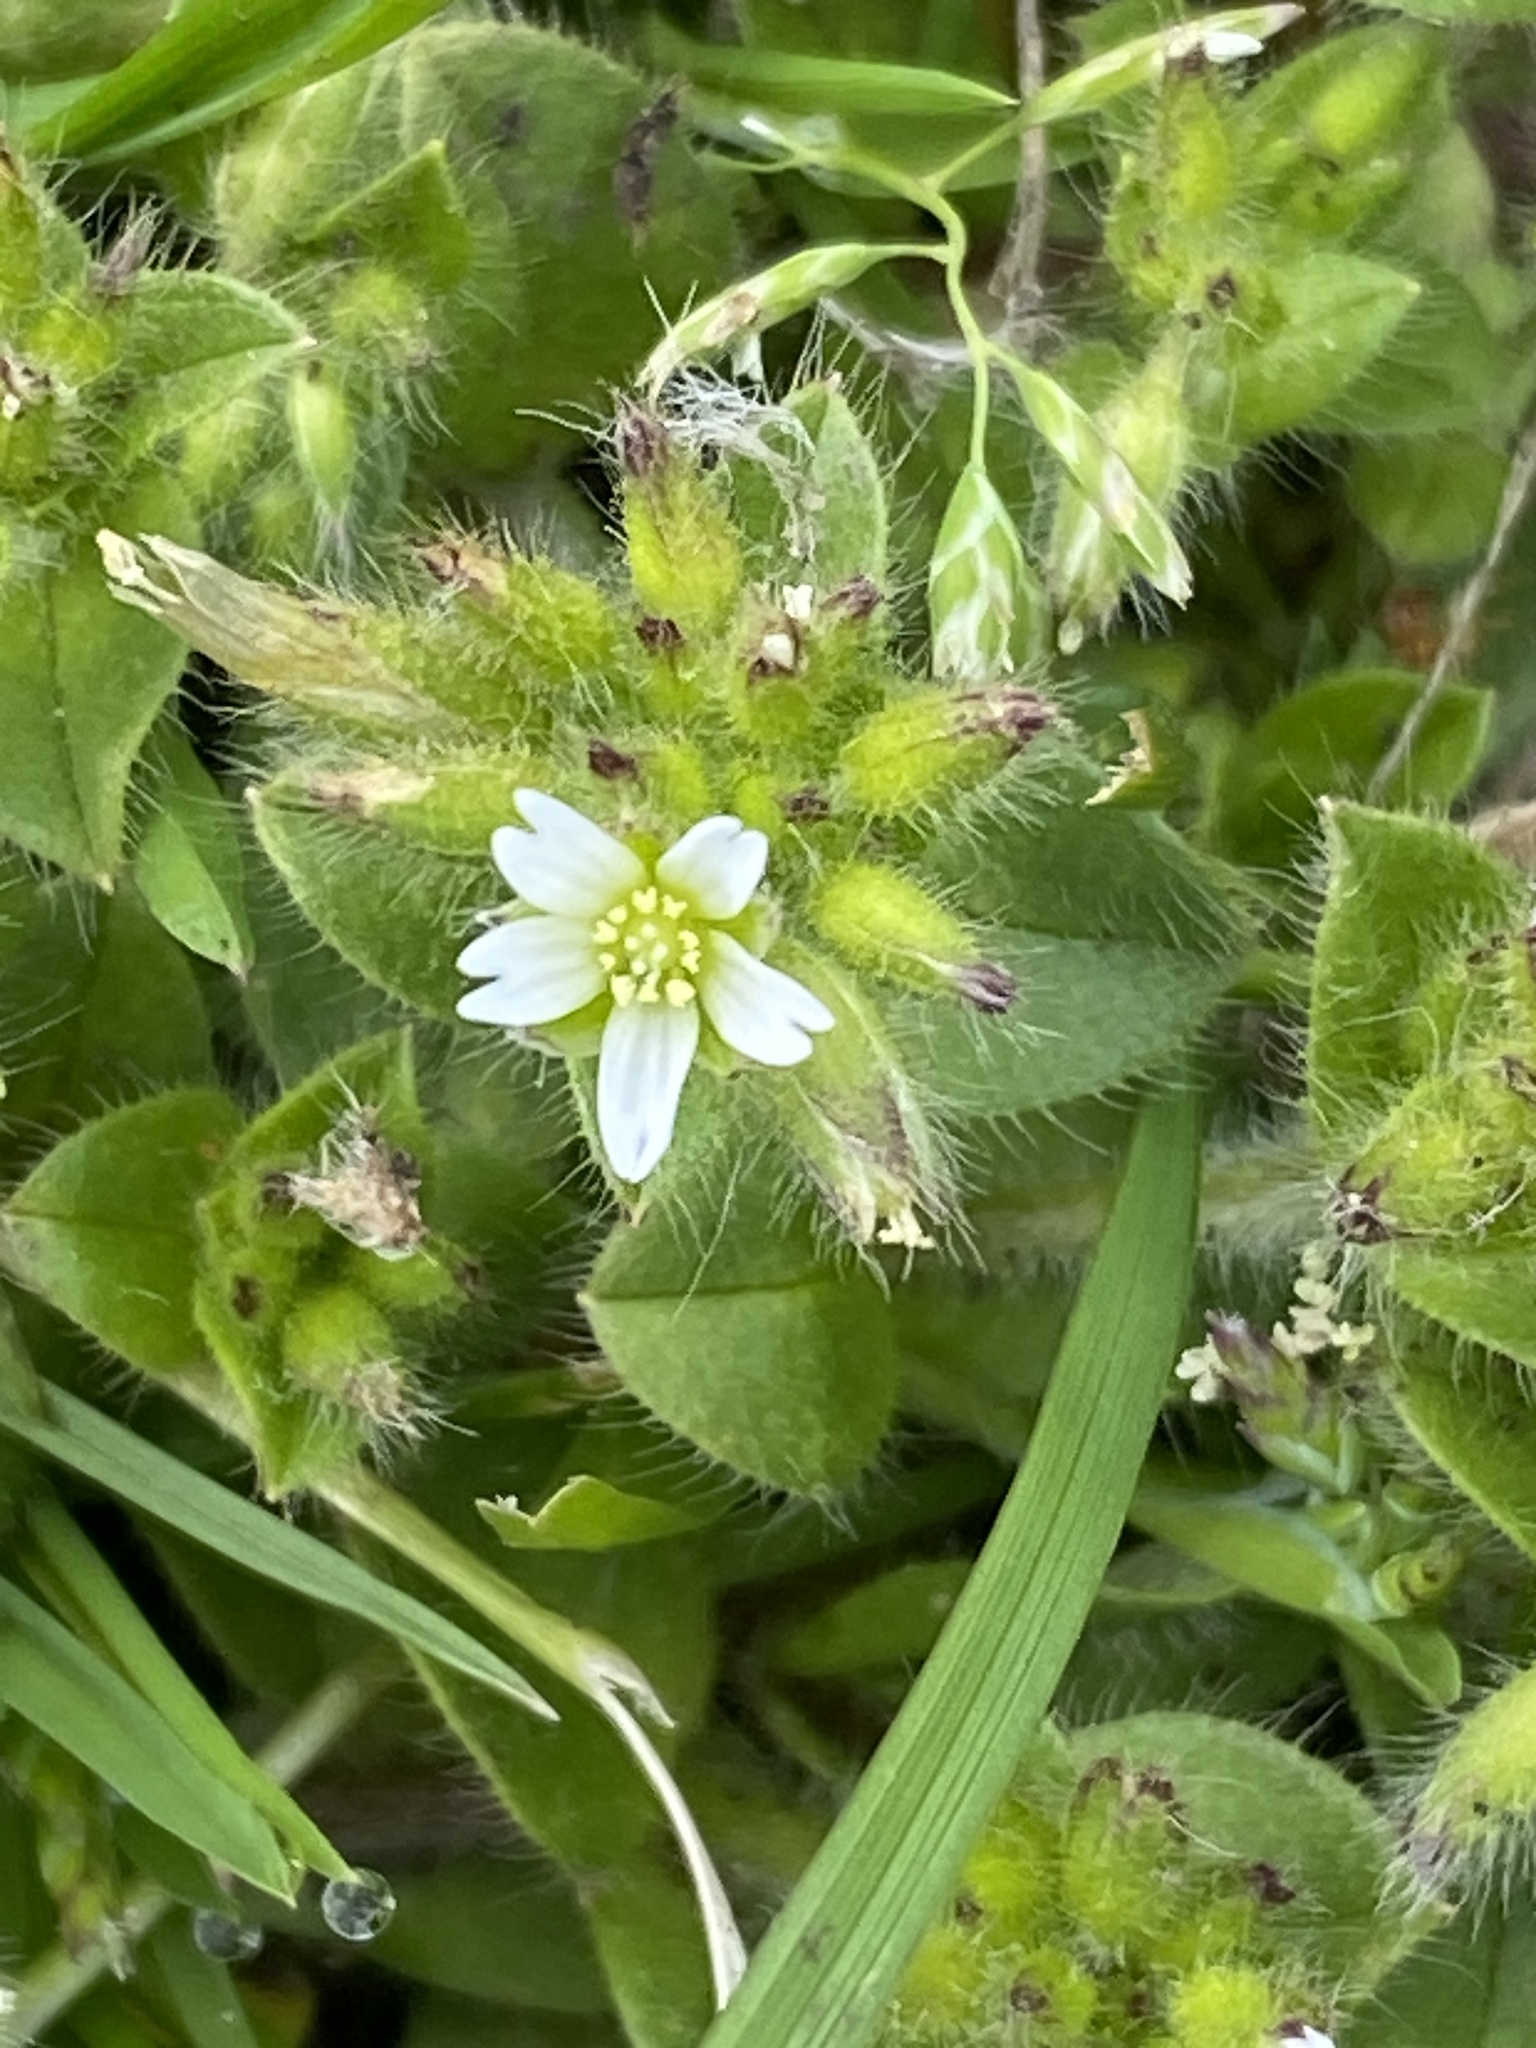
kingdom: Plantae
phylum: Tracheophyta
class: Magnoliopsida
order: Caryophyllales
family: Caryophyllaceae
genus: Cerastium
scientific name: Cerastium glomeratum
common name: Sticky chickweed
